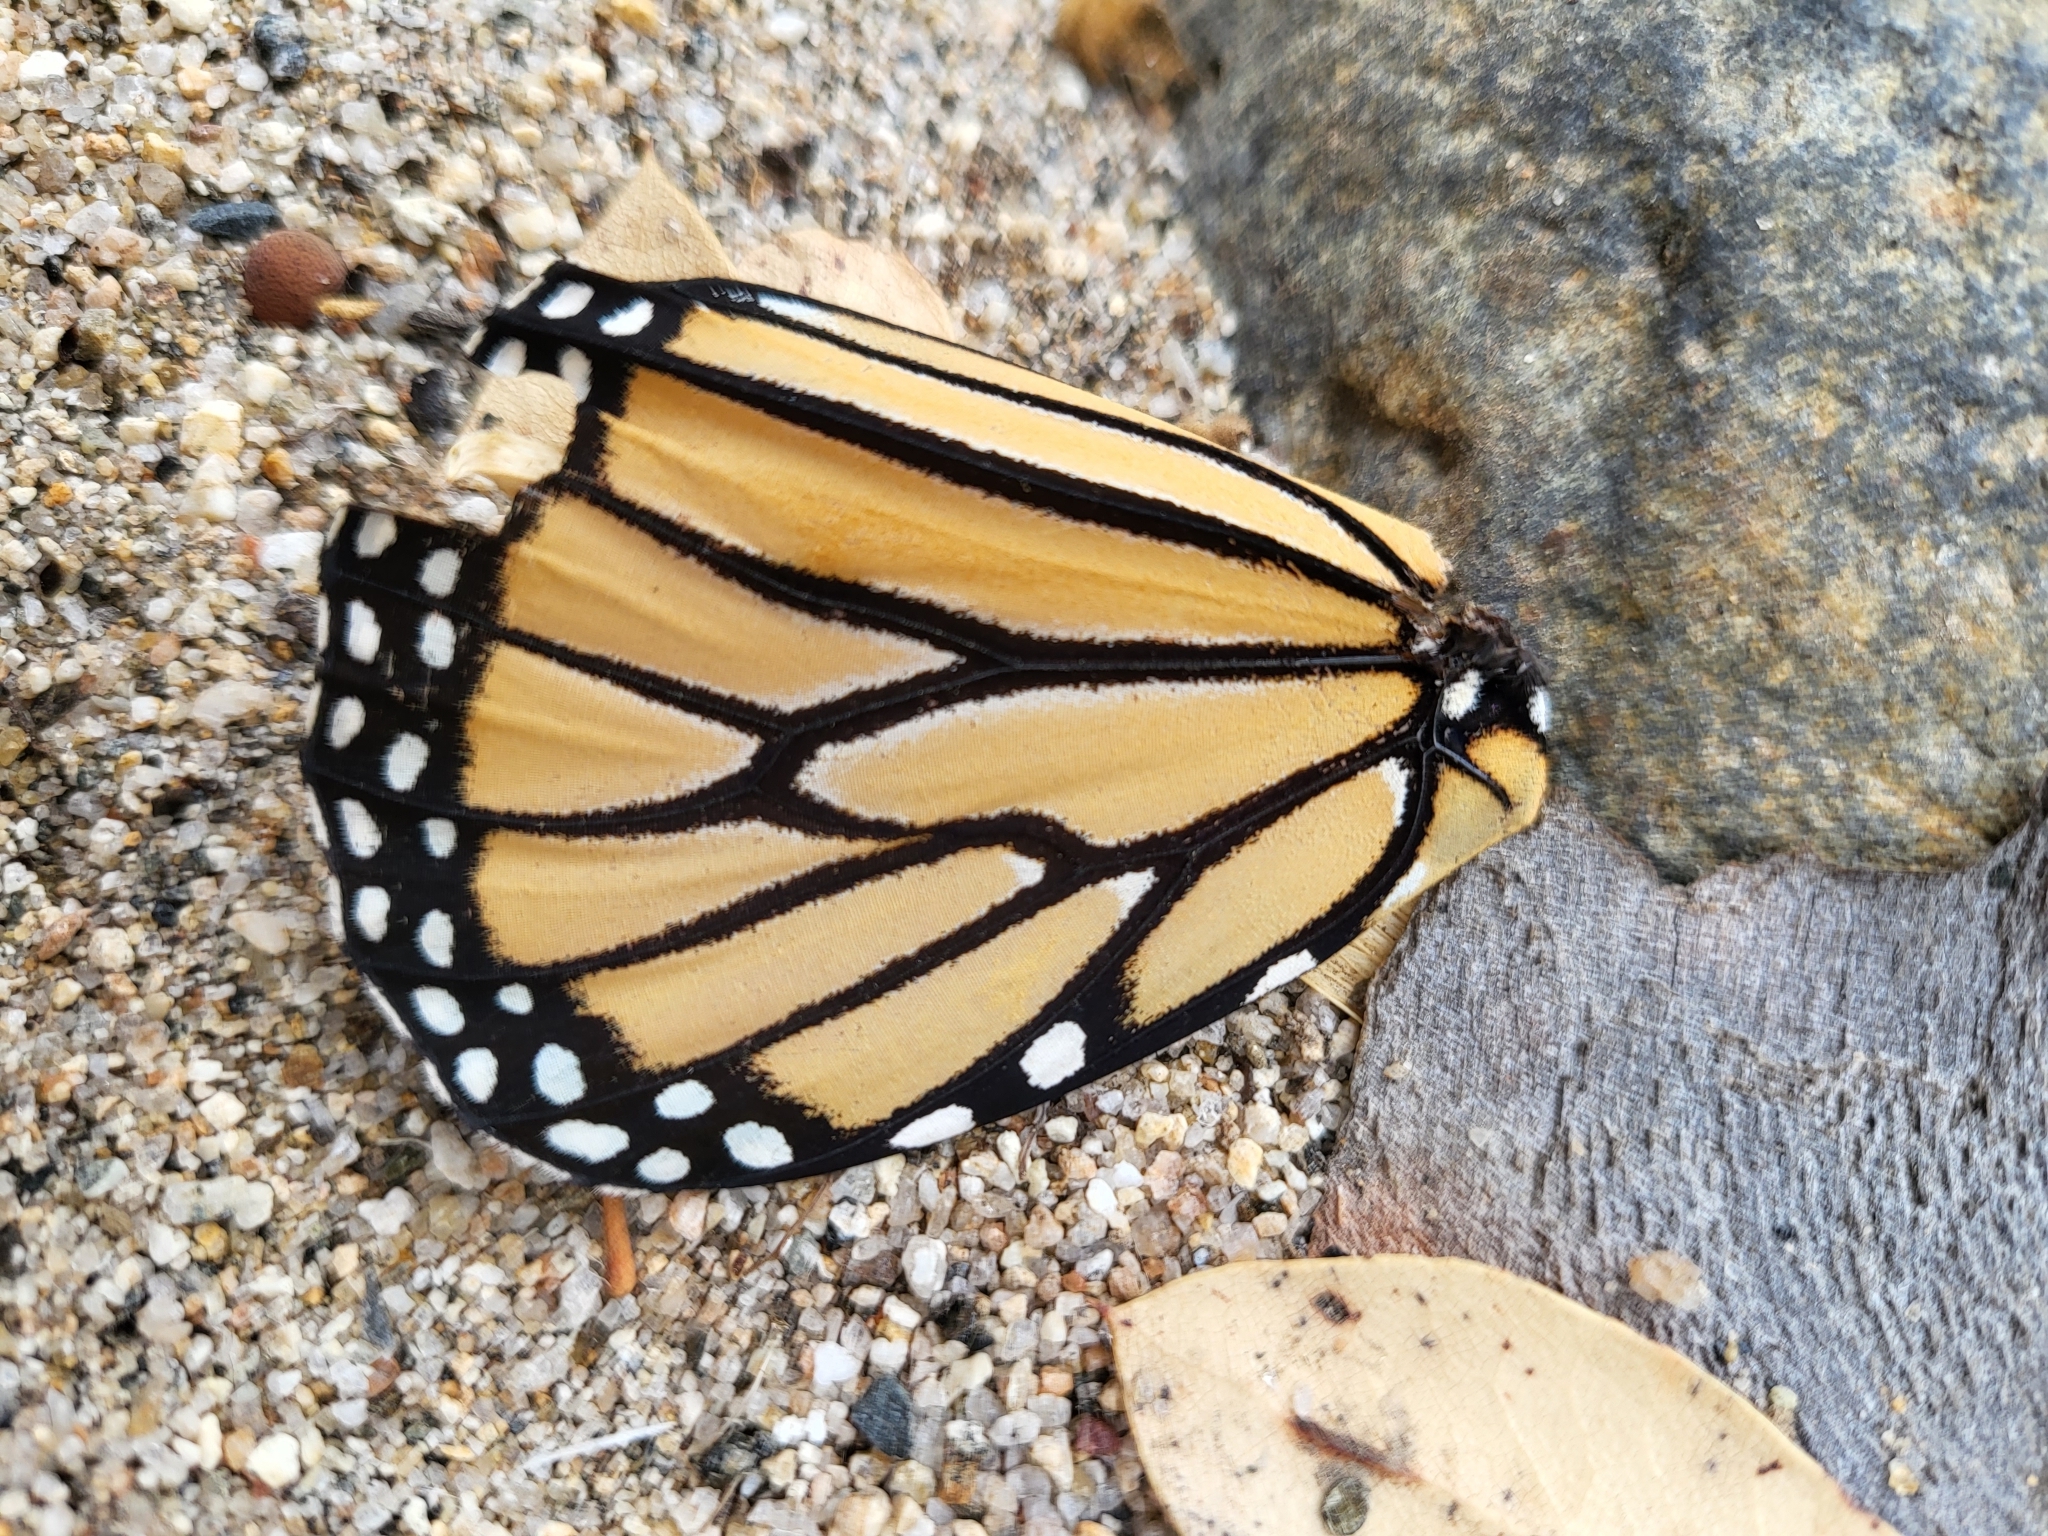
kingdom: Animalia
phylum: Arthropoda
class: Insecta
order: Lepidoptera
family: Nymphalidae
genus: Danaus
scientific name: Danaus plexippus
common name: Monarch
